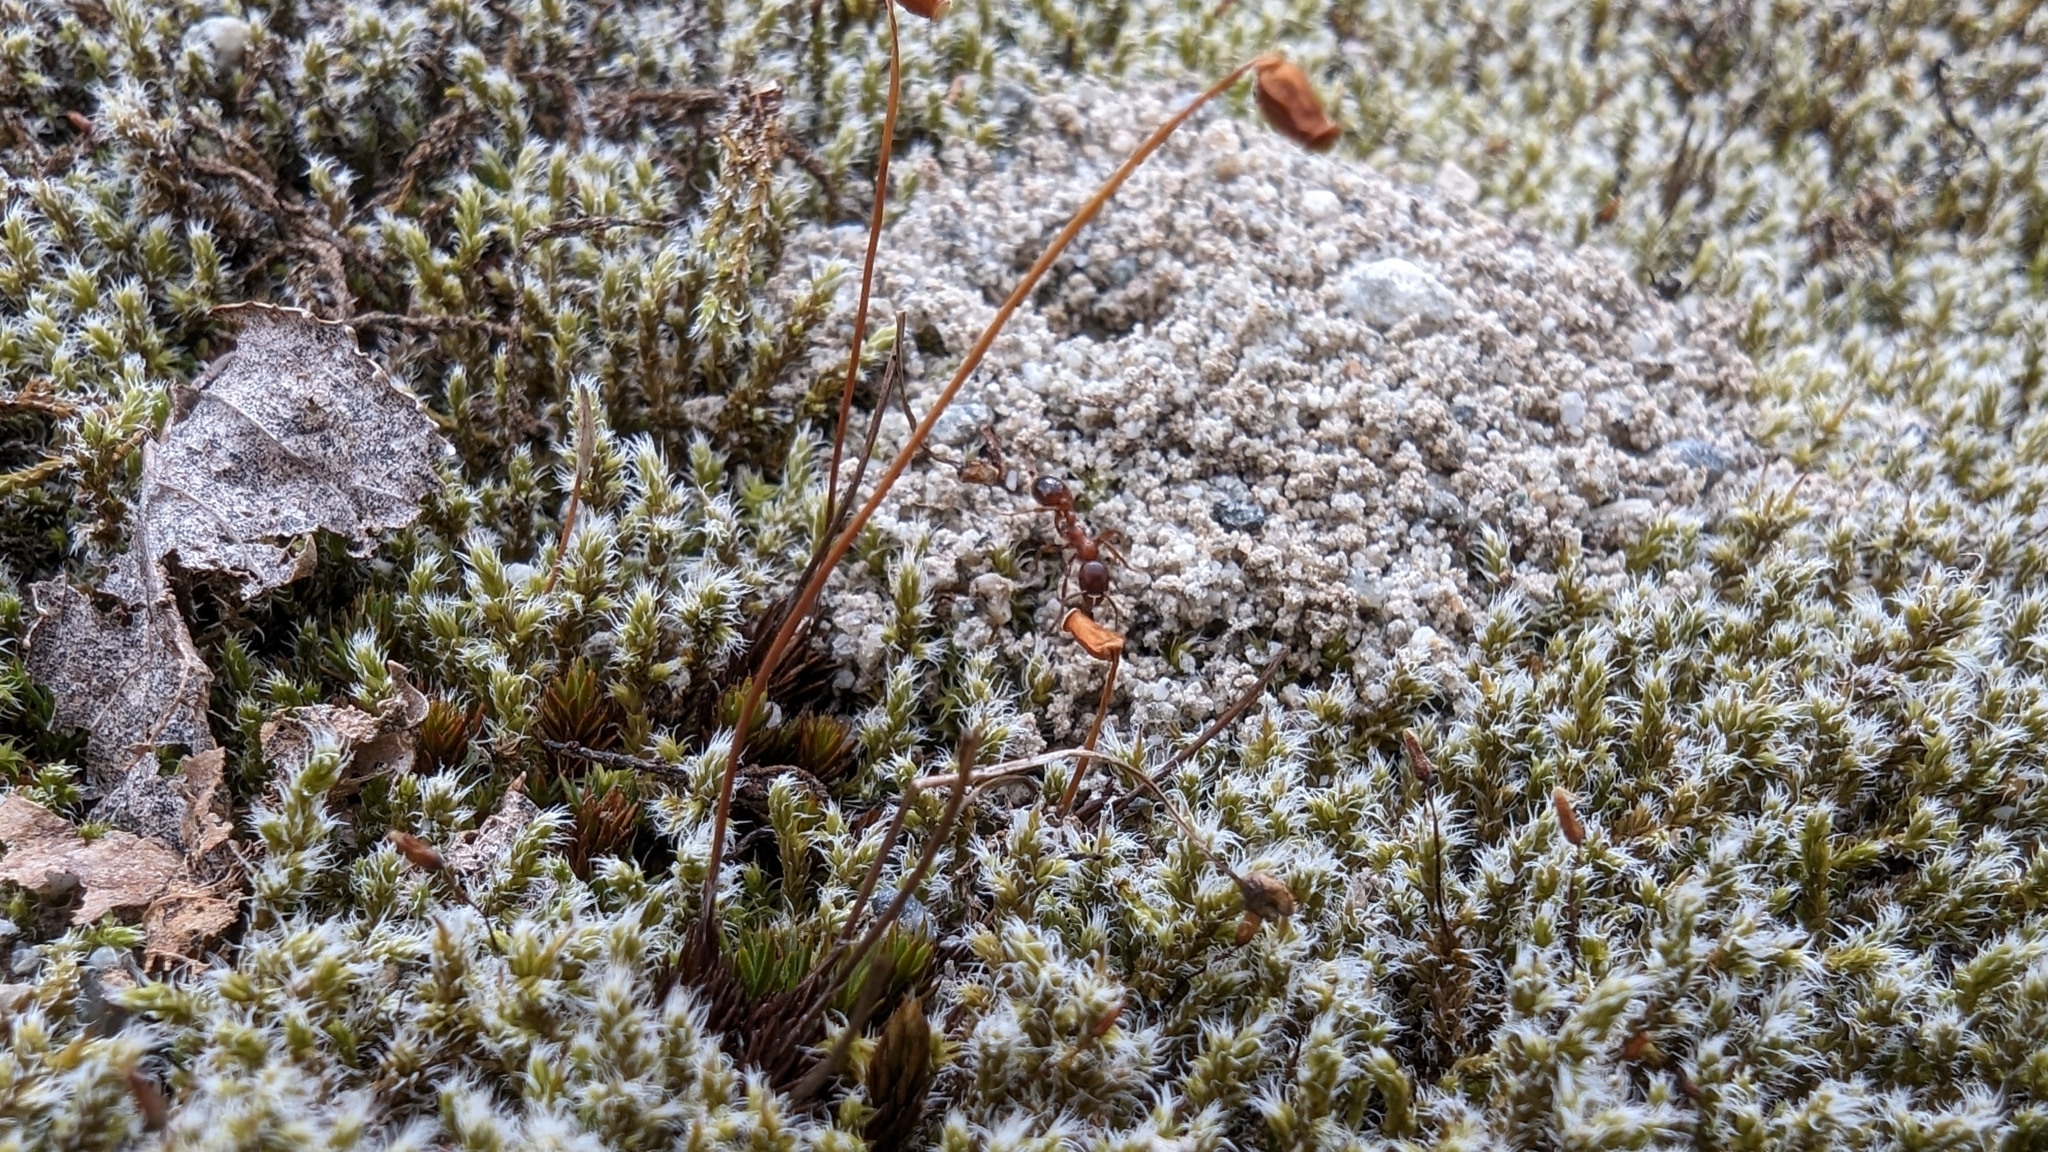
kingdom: Animalia
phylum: Arthropoda
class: Insecta
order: Hymenoptera
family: Formicidae
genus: Manica
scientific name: Manica rubida
